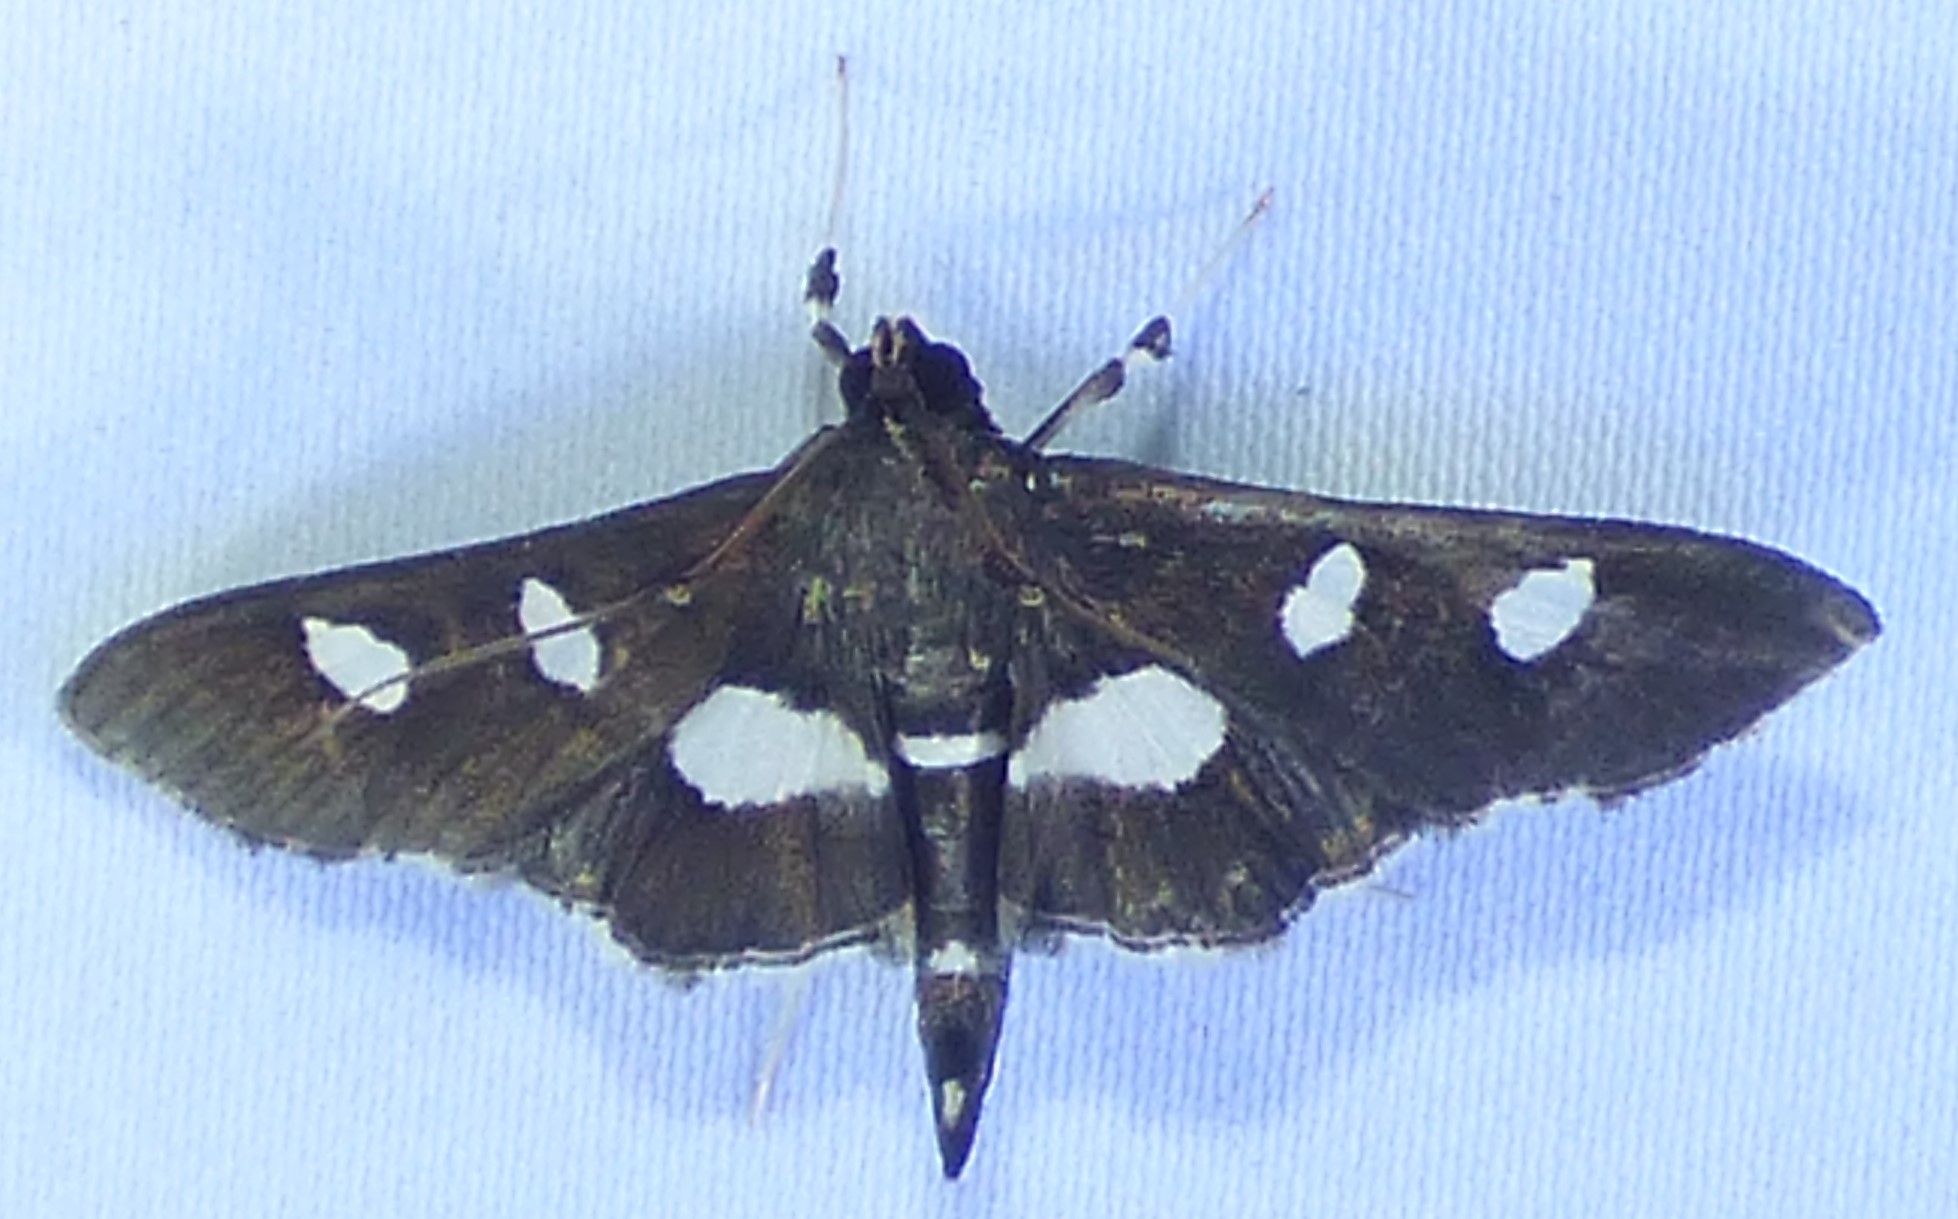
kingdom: Animalia
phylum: Arthropoda
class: Insecta
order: Lepidoptera
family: Crambidae
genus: Desmia
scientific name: Desmia funeralis
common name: Grape leaf folder moth
